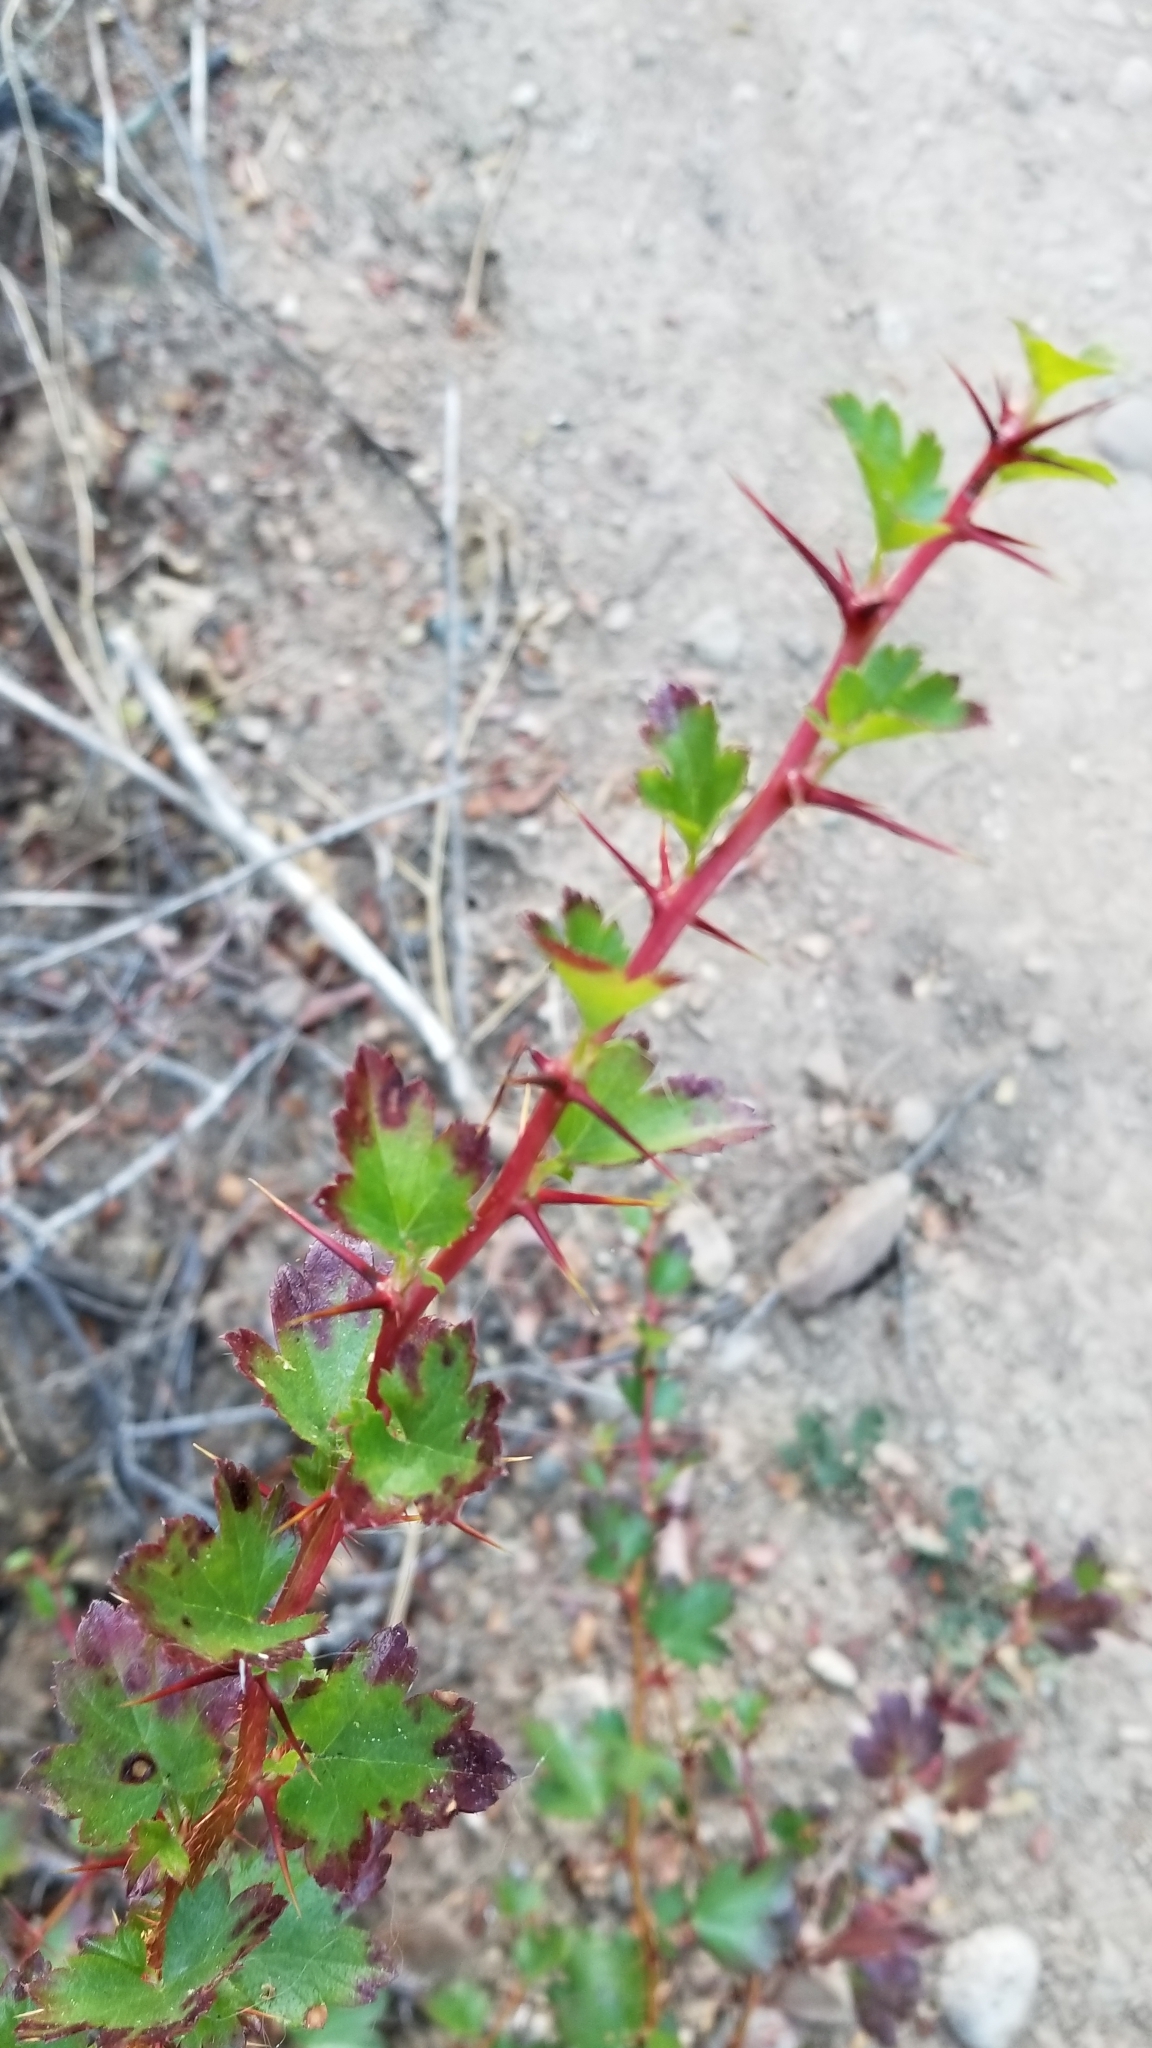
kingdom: Plantae
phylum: Tracheophyta
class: Magnoliopsida
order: Saxifragales
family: Grossulariaceae
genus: Ribes
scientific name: Ribes californicum
